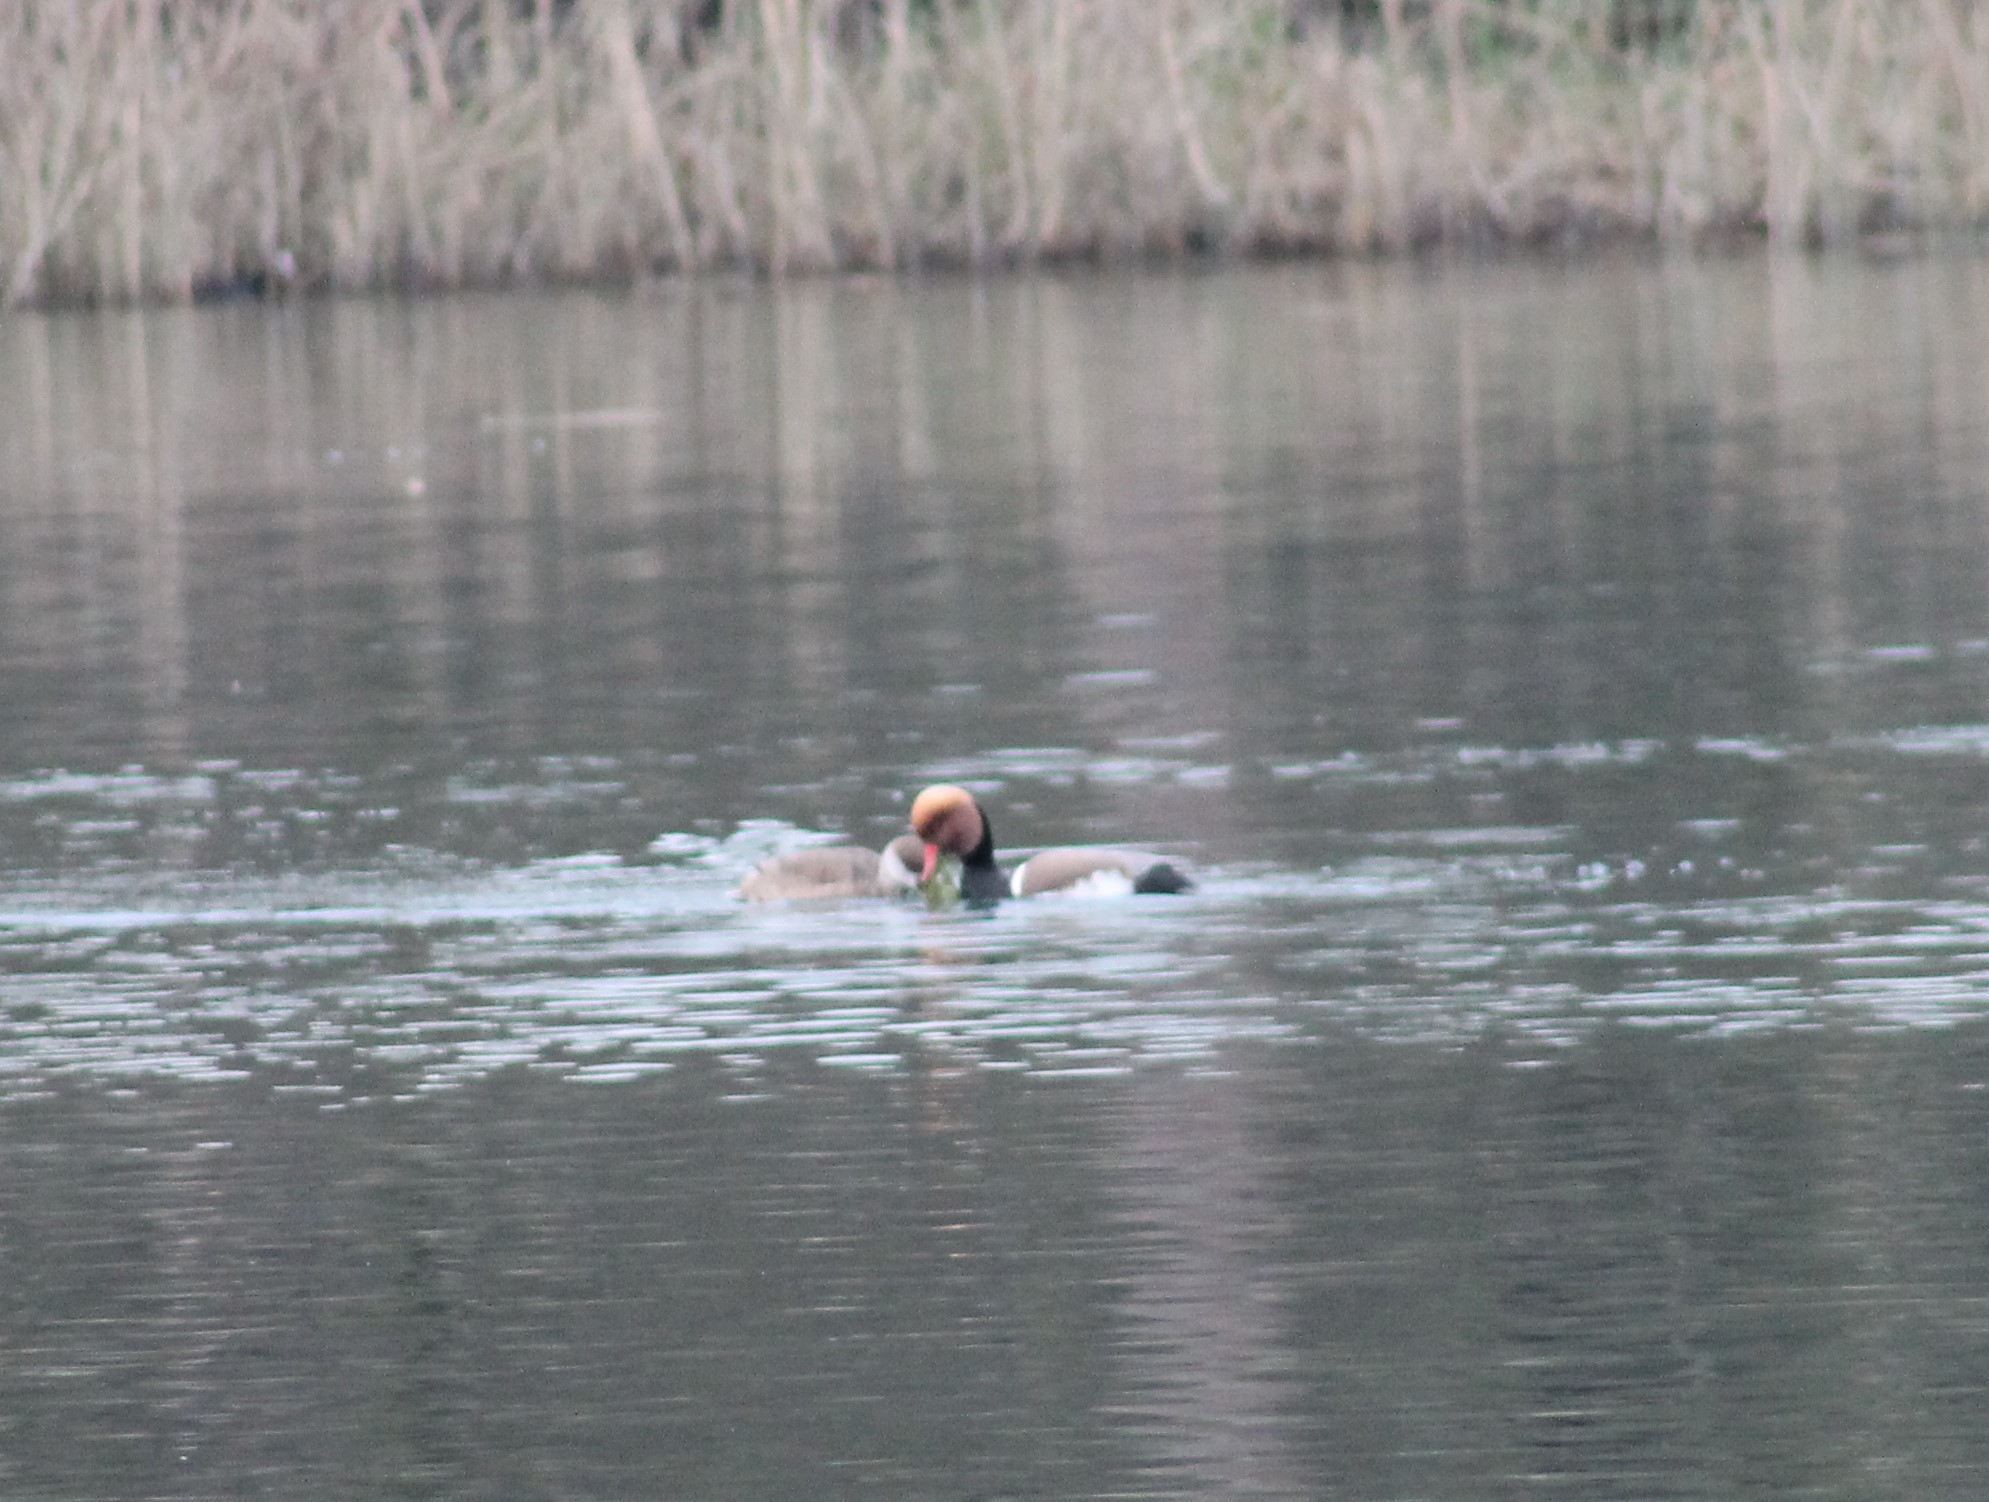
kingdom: Animalia
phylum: Chordata
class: Aves
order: Anseriformes
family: Anatidae
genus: Netta
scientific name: Netta rufina
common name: Red-crested pochard
